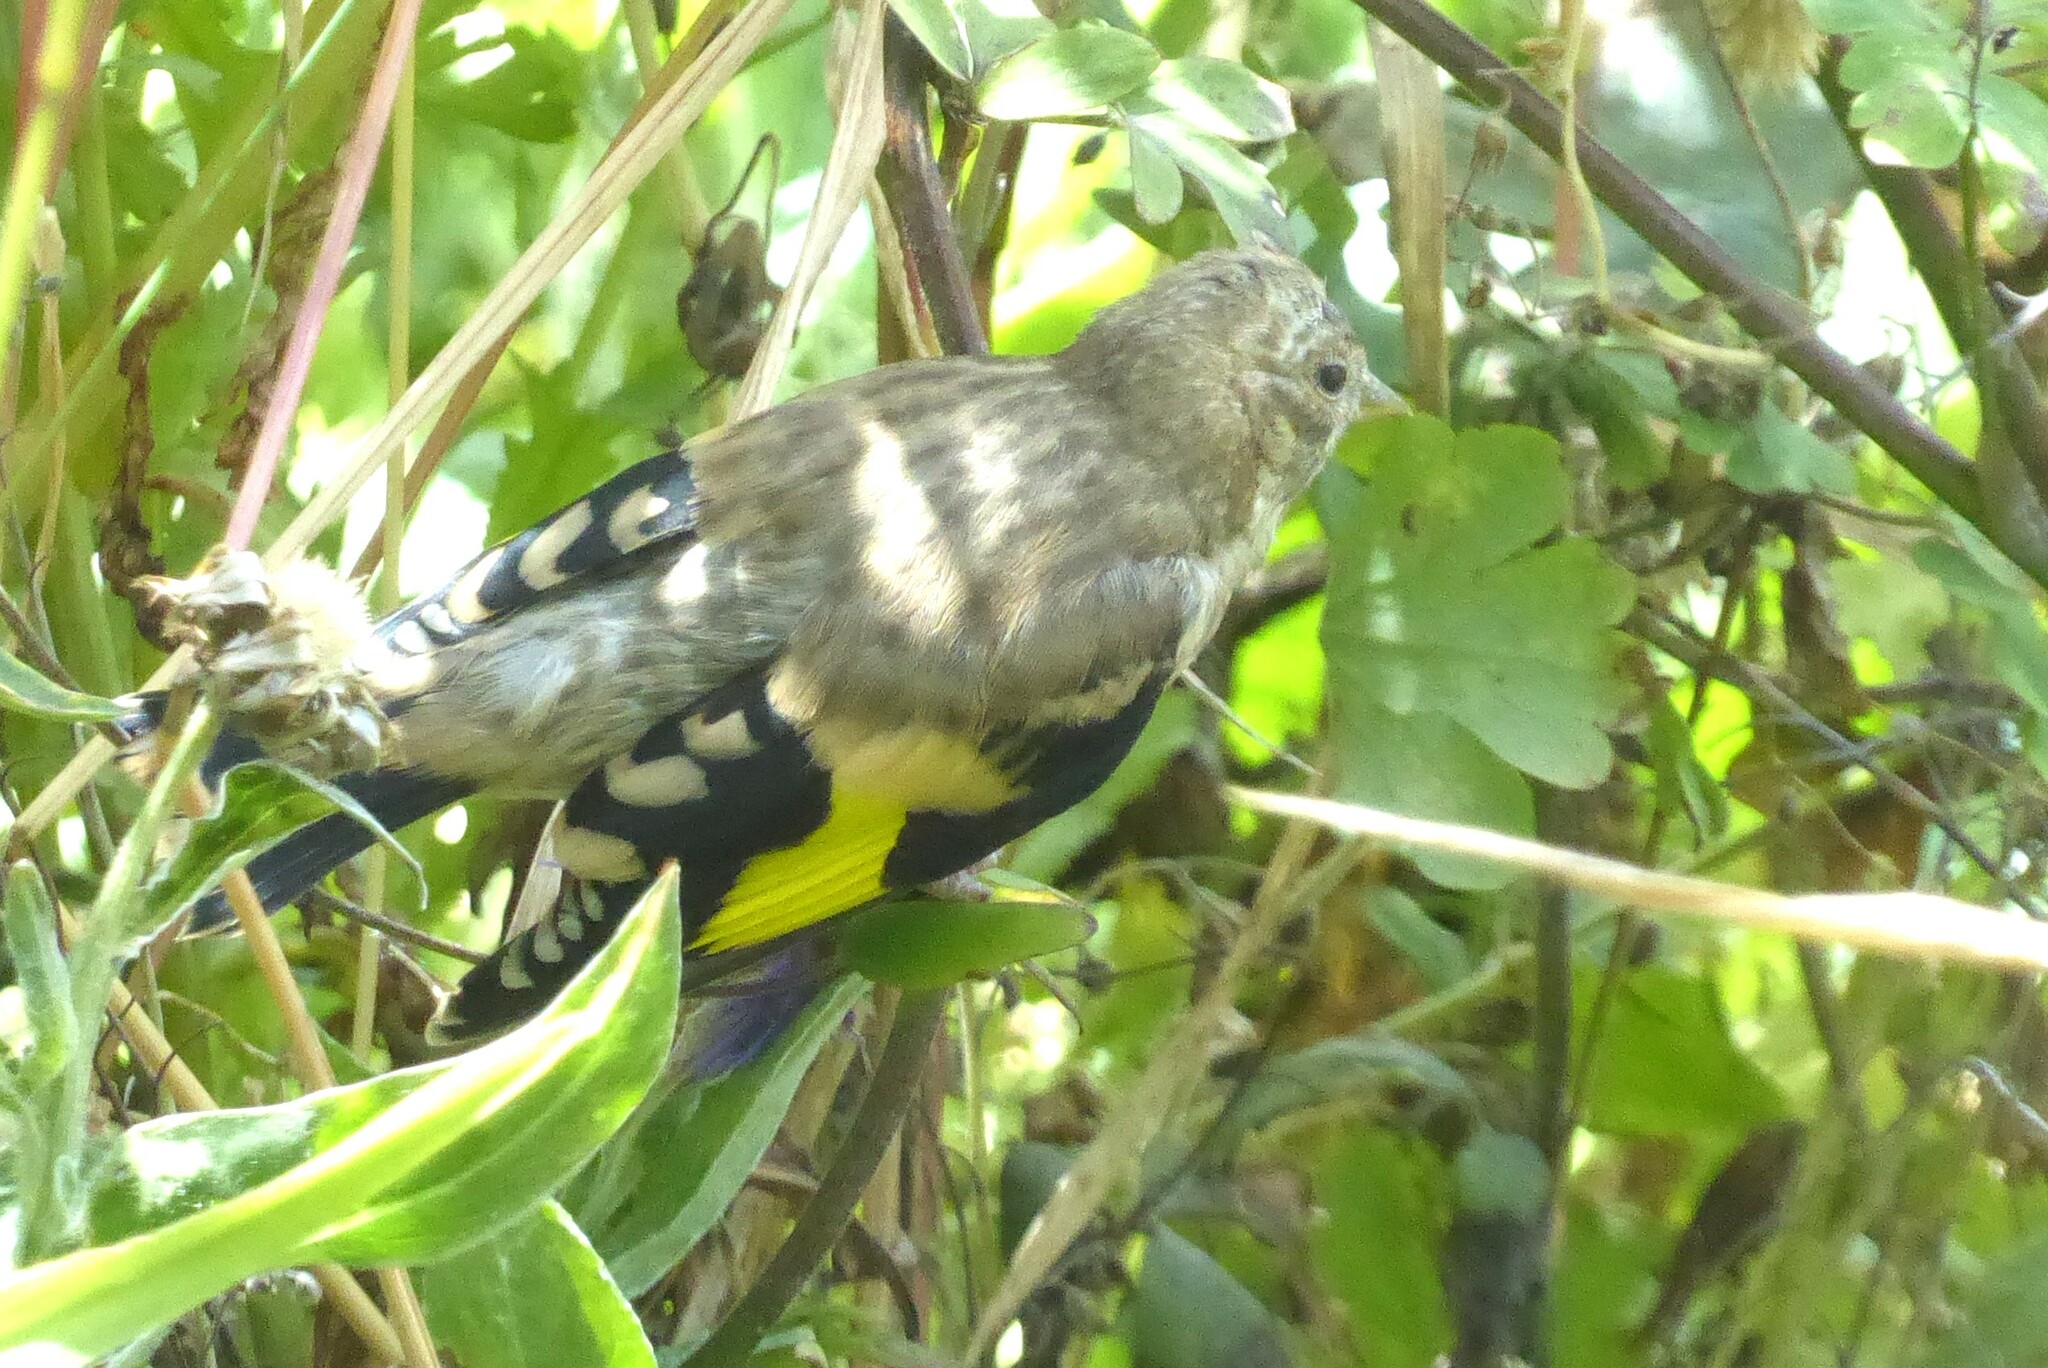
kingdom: Animalia
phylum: Chordata
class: Aves
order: Passeriformes
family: Fringillidae
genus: Carduelis
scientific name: Carduelis carduelis
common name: European goldfinch
